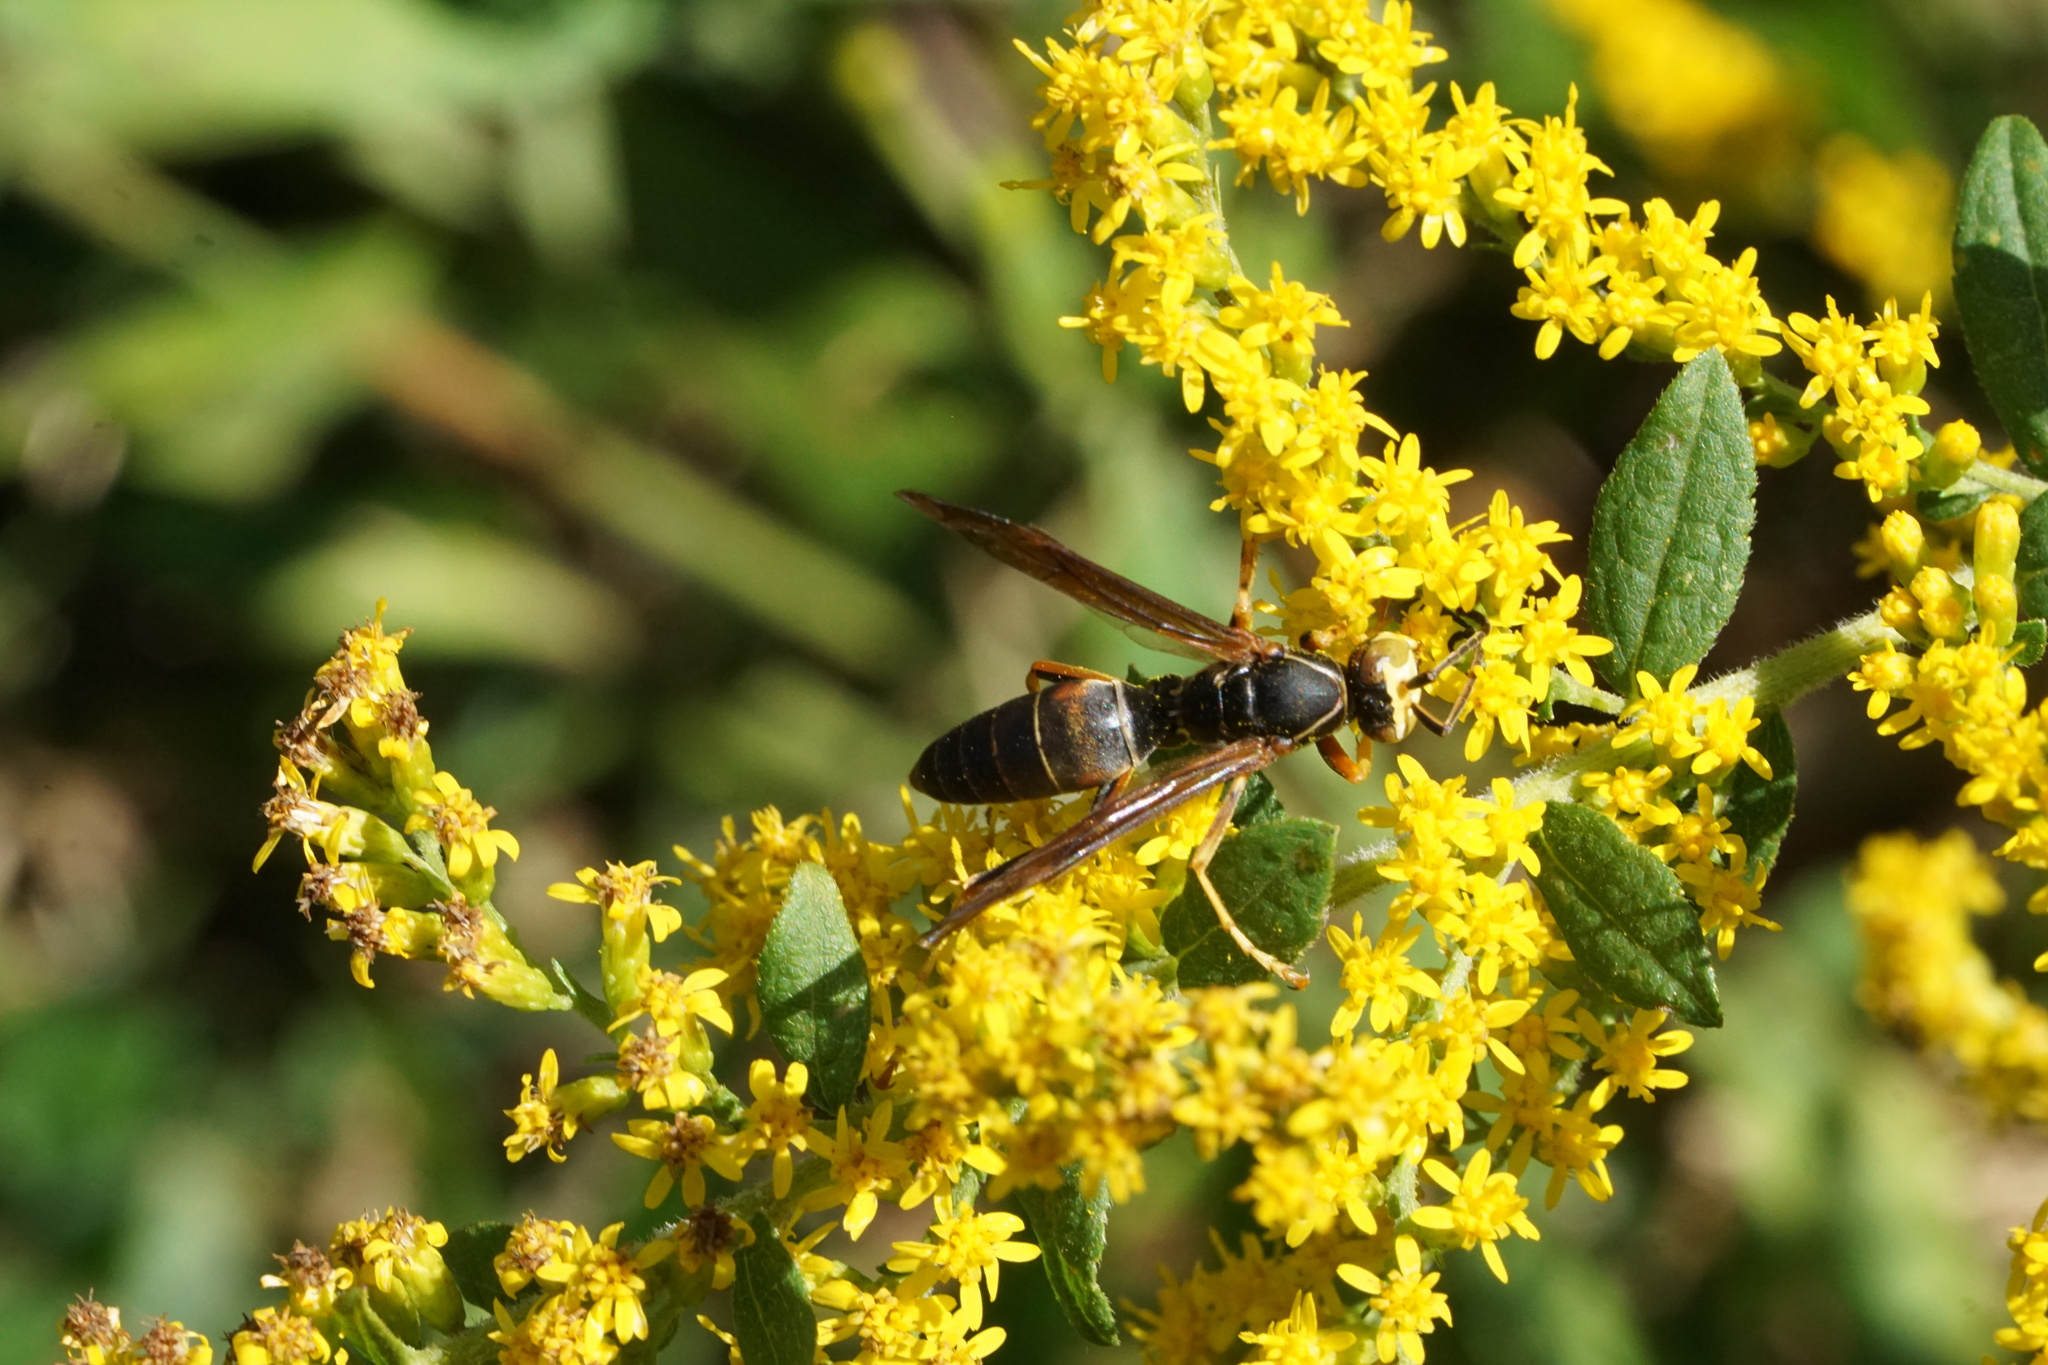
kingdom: Animalia
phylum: Arthropoda
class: Insecta
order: Hymenoptera
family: Eumenidae
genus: Polistes
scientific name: Polistes fuscatus
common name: Dark paper wasp
